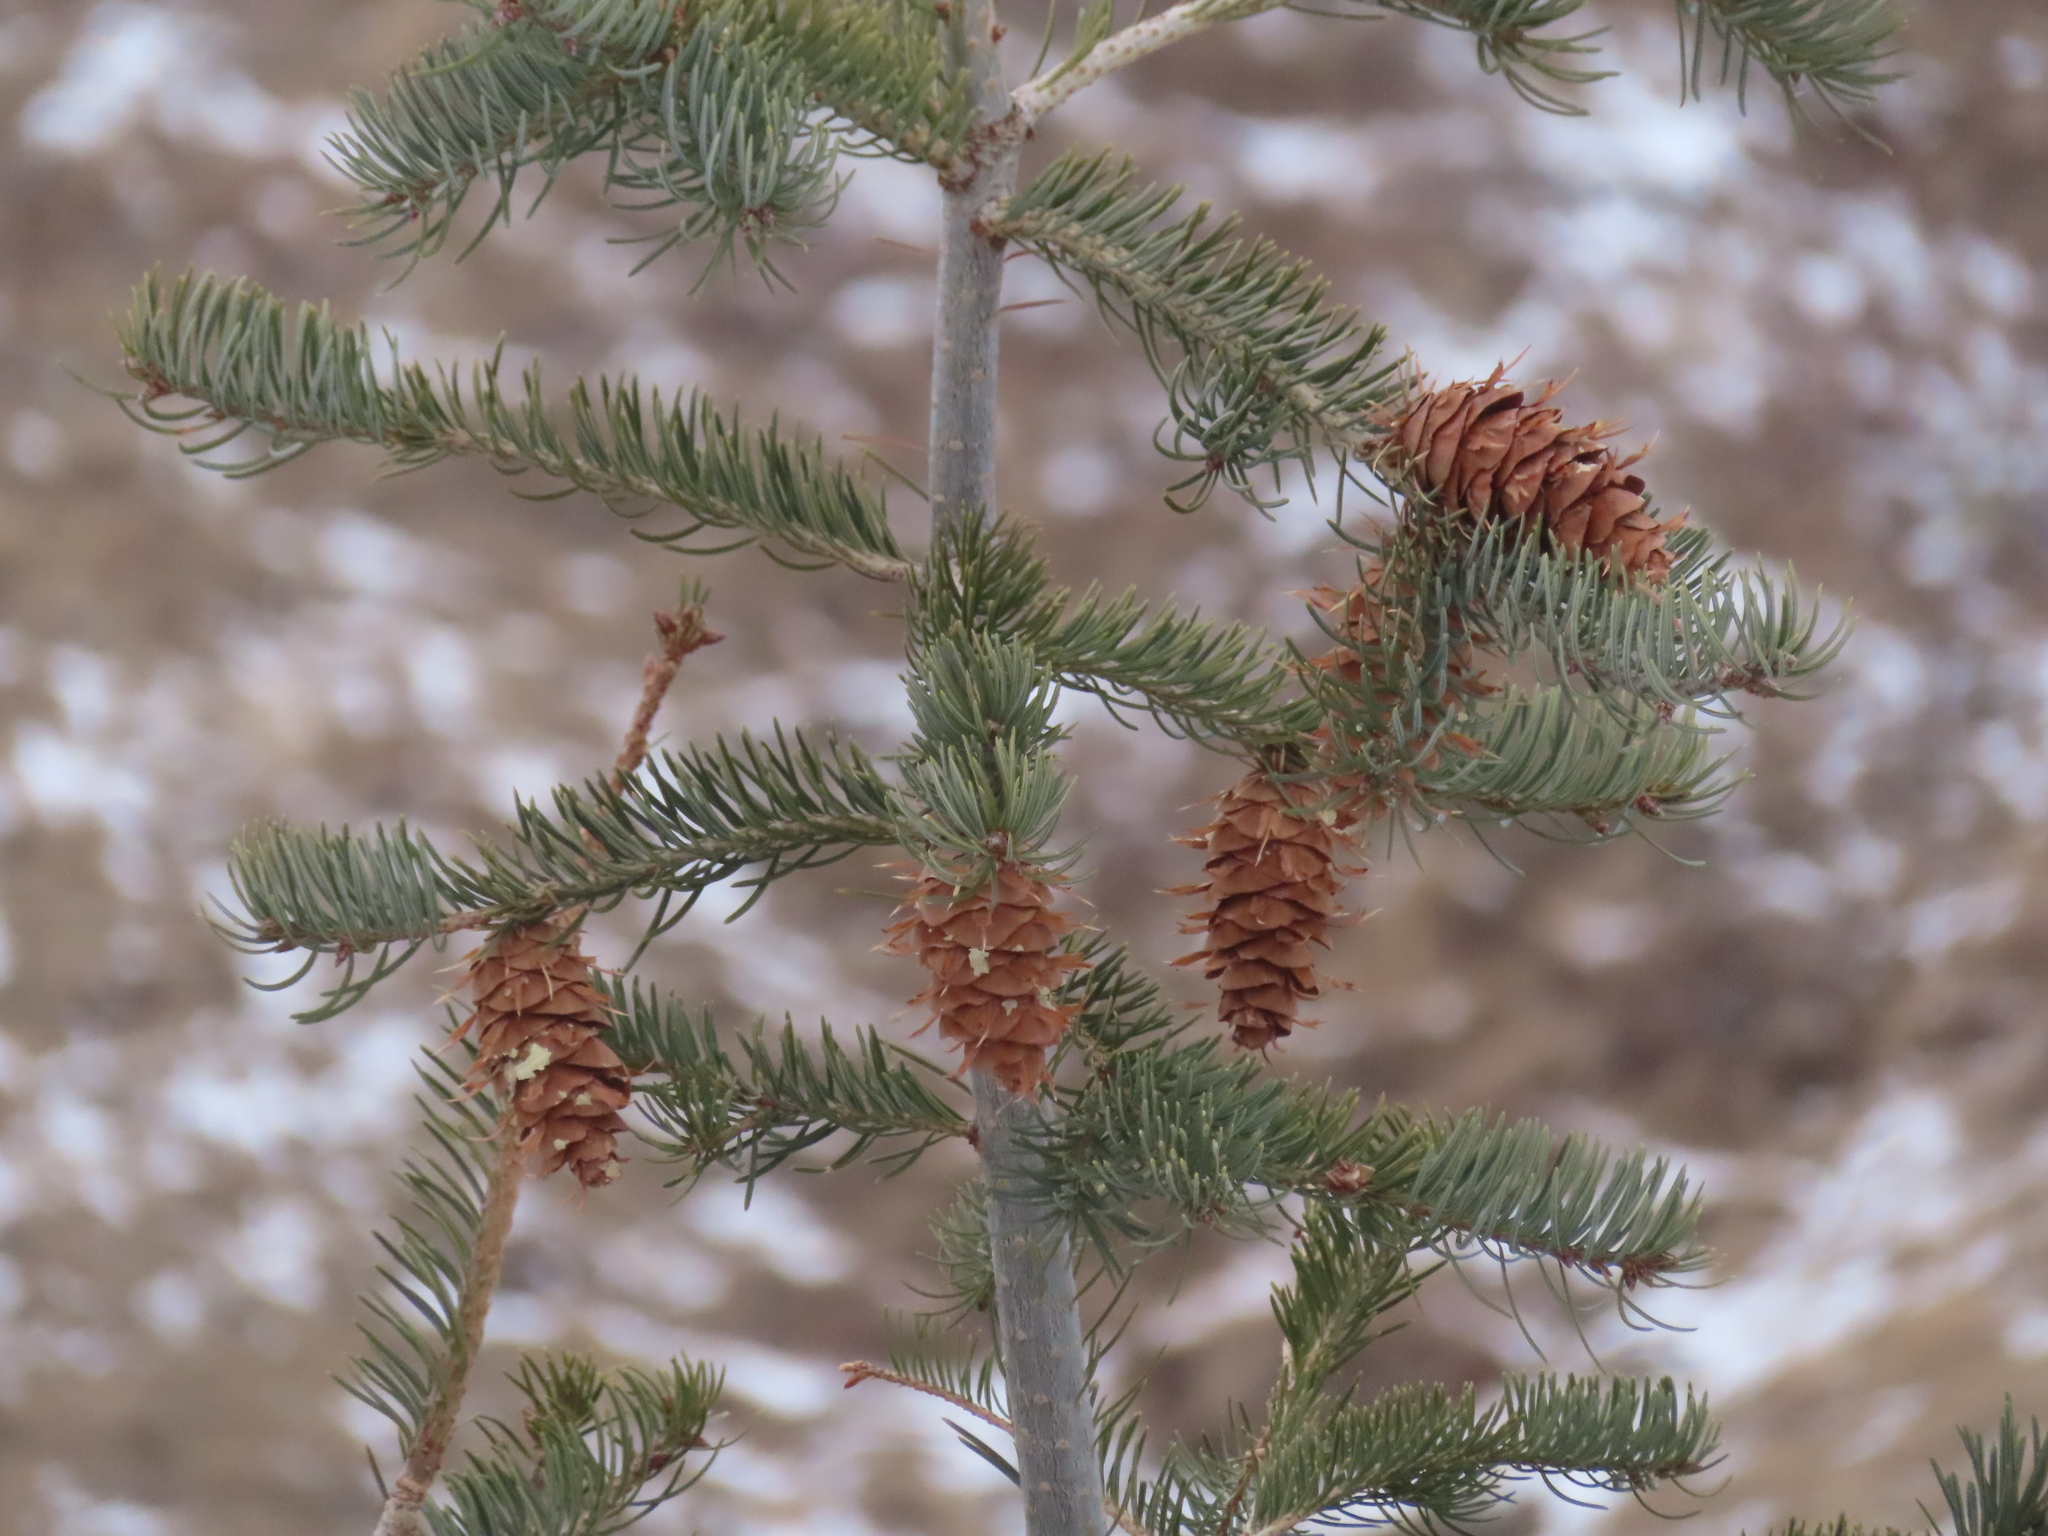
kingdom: Plantae
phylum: Tracheophyta
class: Pinopsida
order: Pinales
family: Pinaceae
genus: Pseudotsuga
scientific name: Pseudotsuga menziesii
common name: Douglas fir
